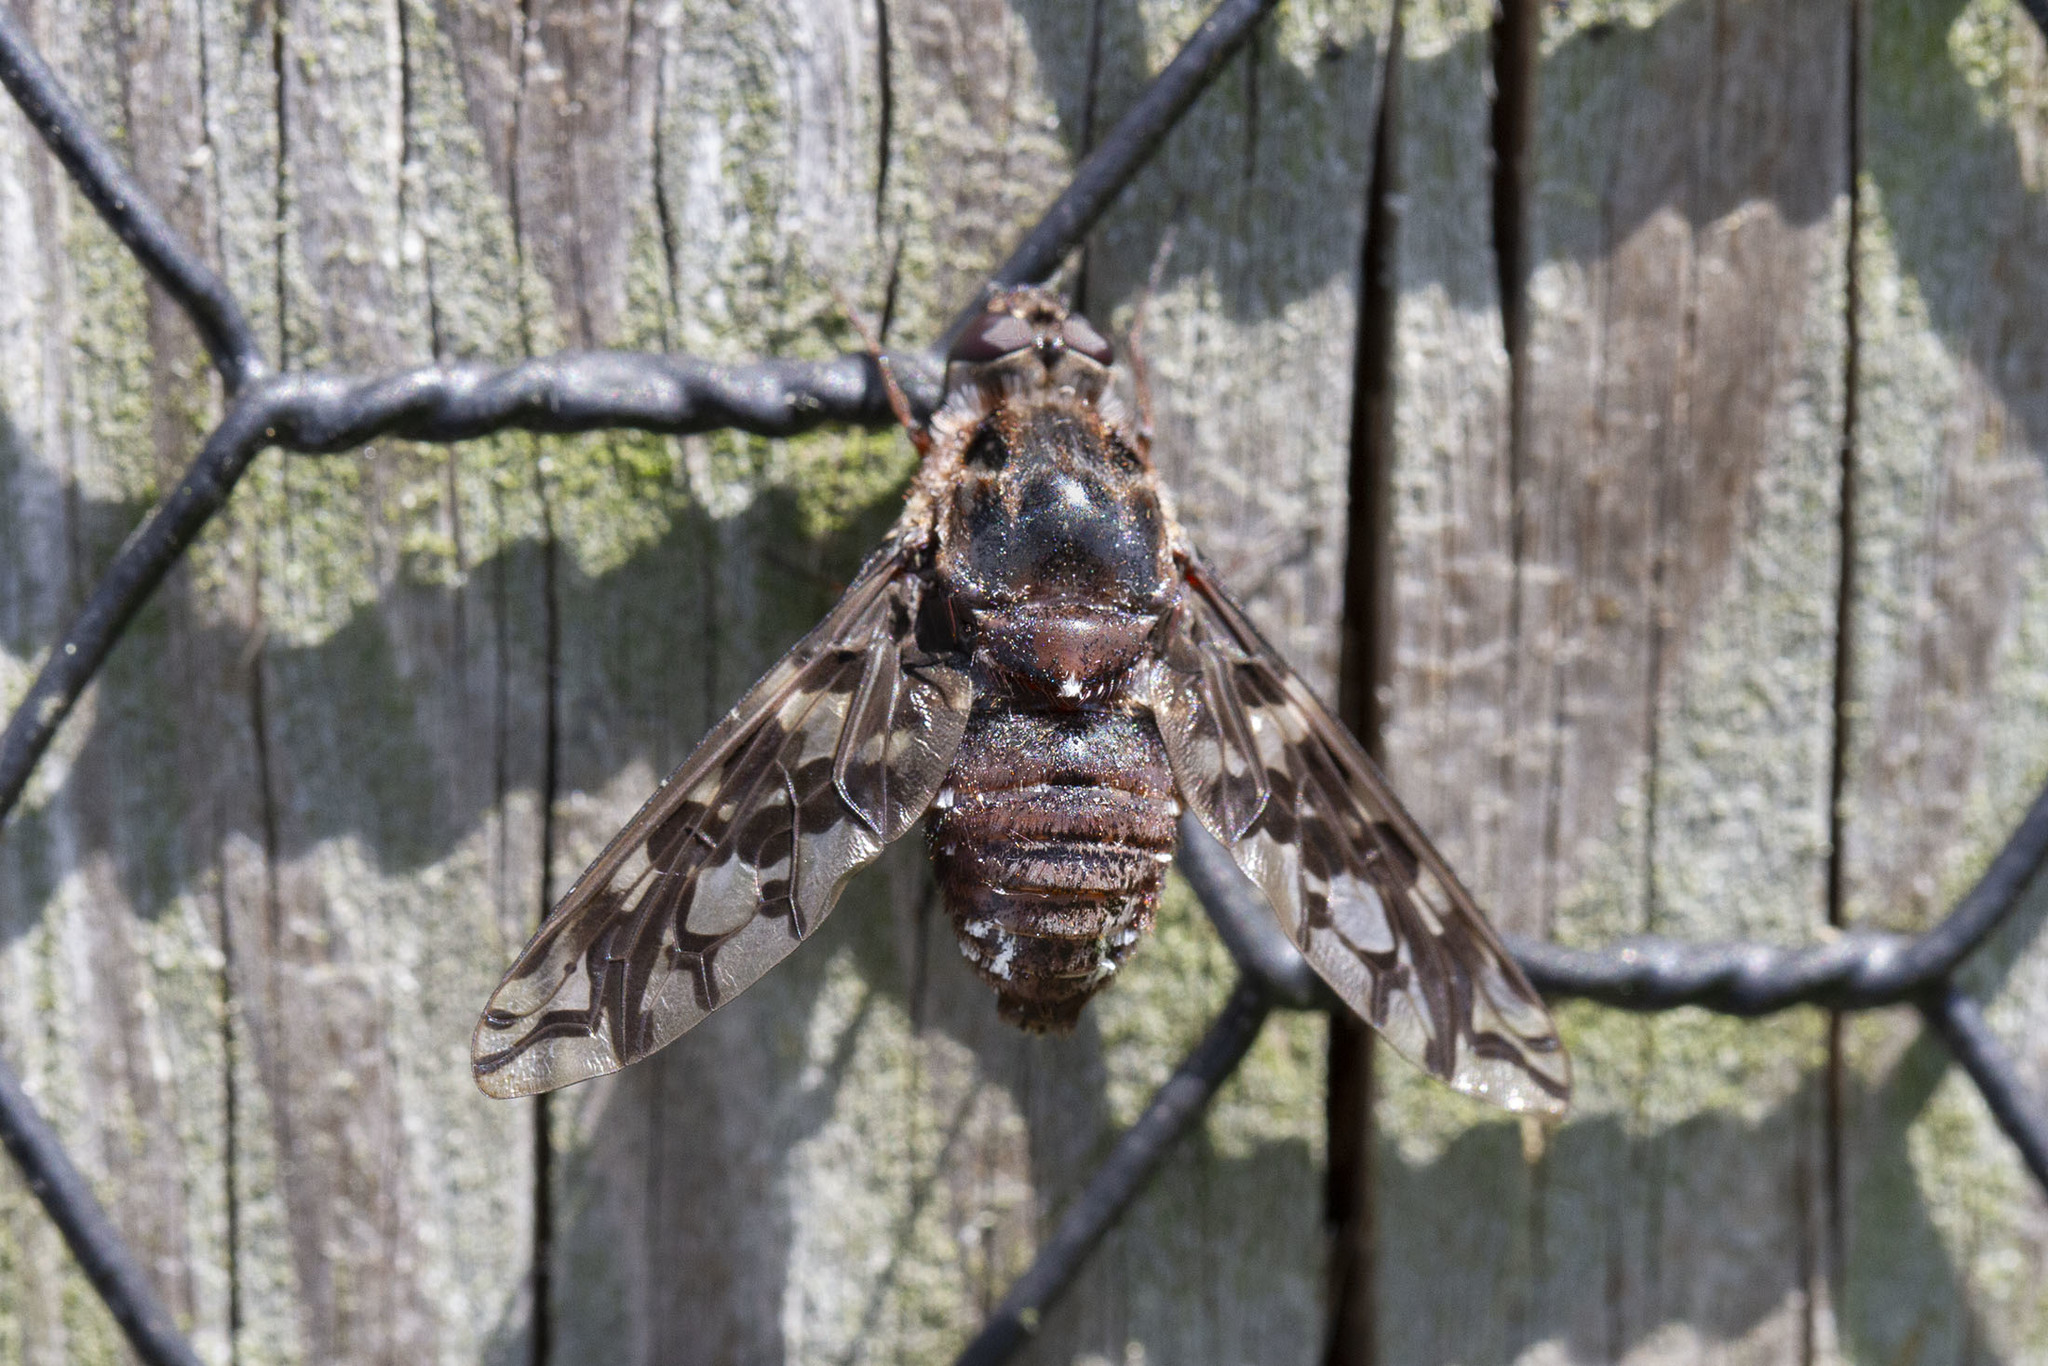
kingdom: Animalia
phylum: Arthropoda
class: Insecta
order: Diptera
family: Bombyliidae
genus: Xenox
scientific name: Xenox tigrinus
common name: Tiger bee fly
